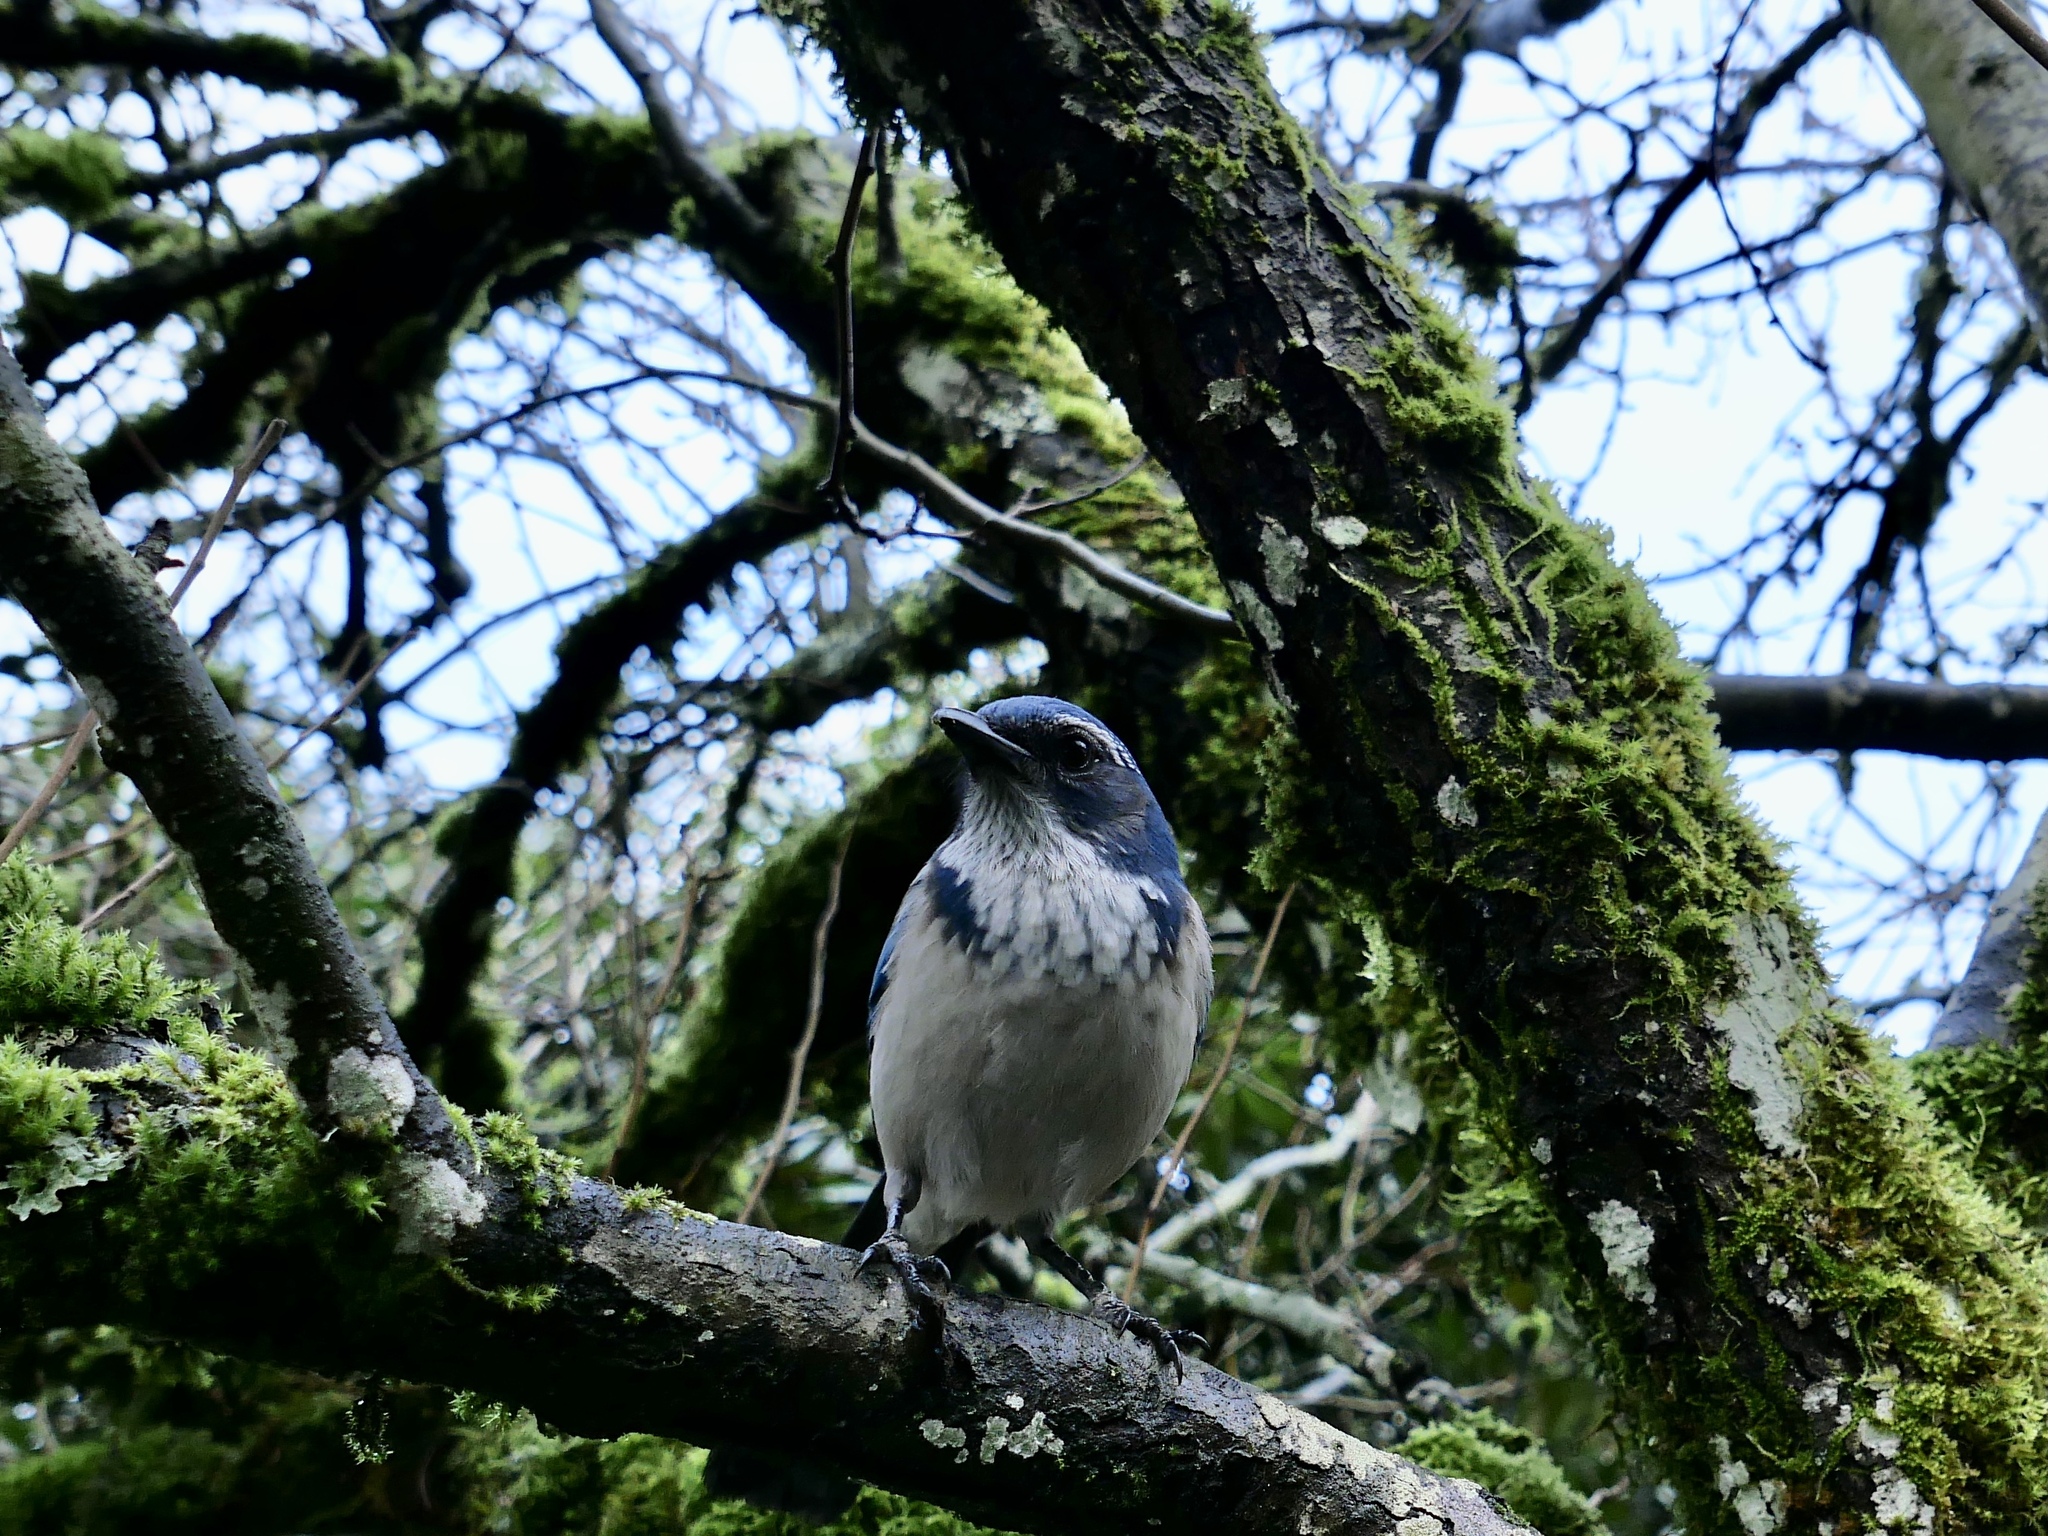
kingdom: Animalia
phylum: Chordata
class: Aves
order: Passeriformes
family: Corvidae
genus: Aphelocoma
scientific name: Aphelocoma californica
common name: California scrub-jay
